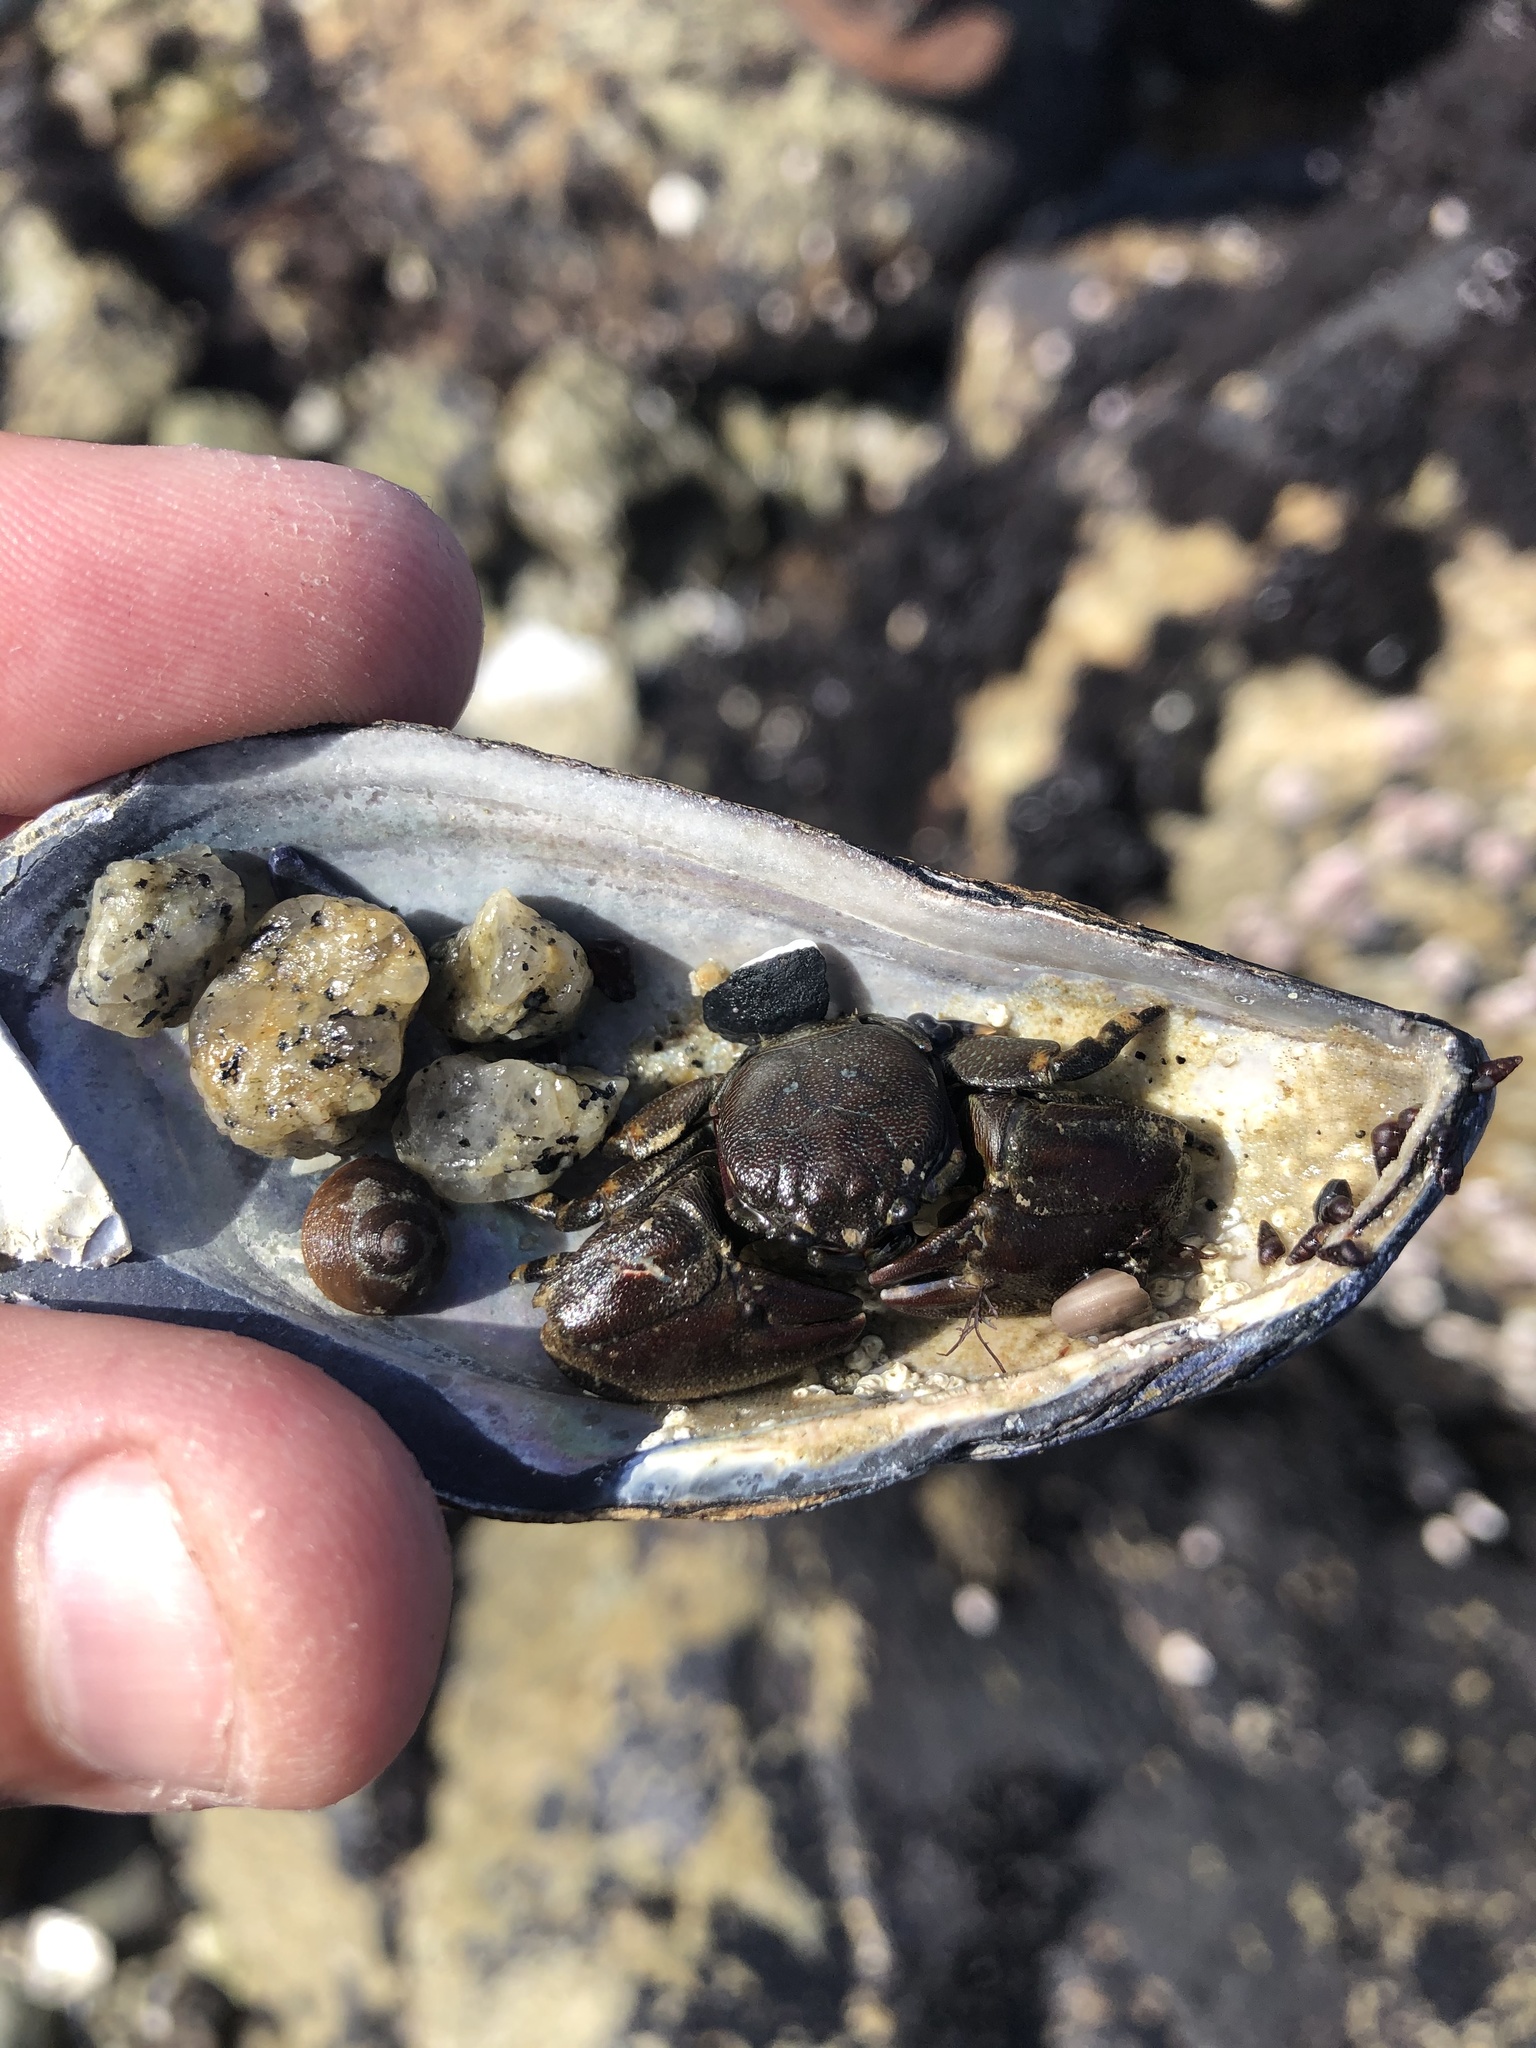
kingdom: Animalia
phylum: Arthropoda
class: Malacostraca
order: Decapoda
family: Porcellanidae
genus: Petrolisthes
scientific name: Petrolisthes cinctipes
